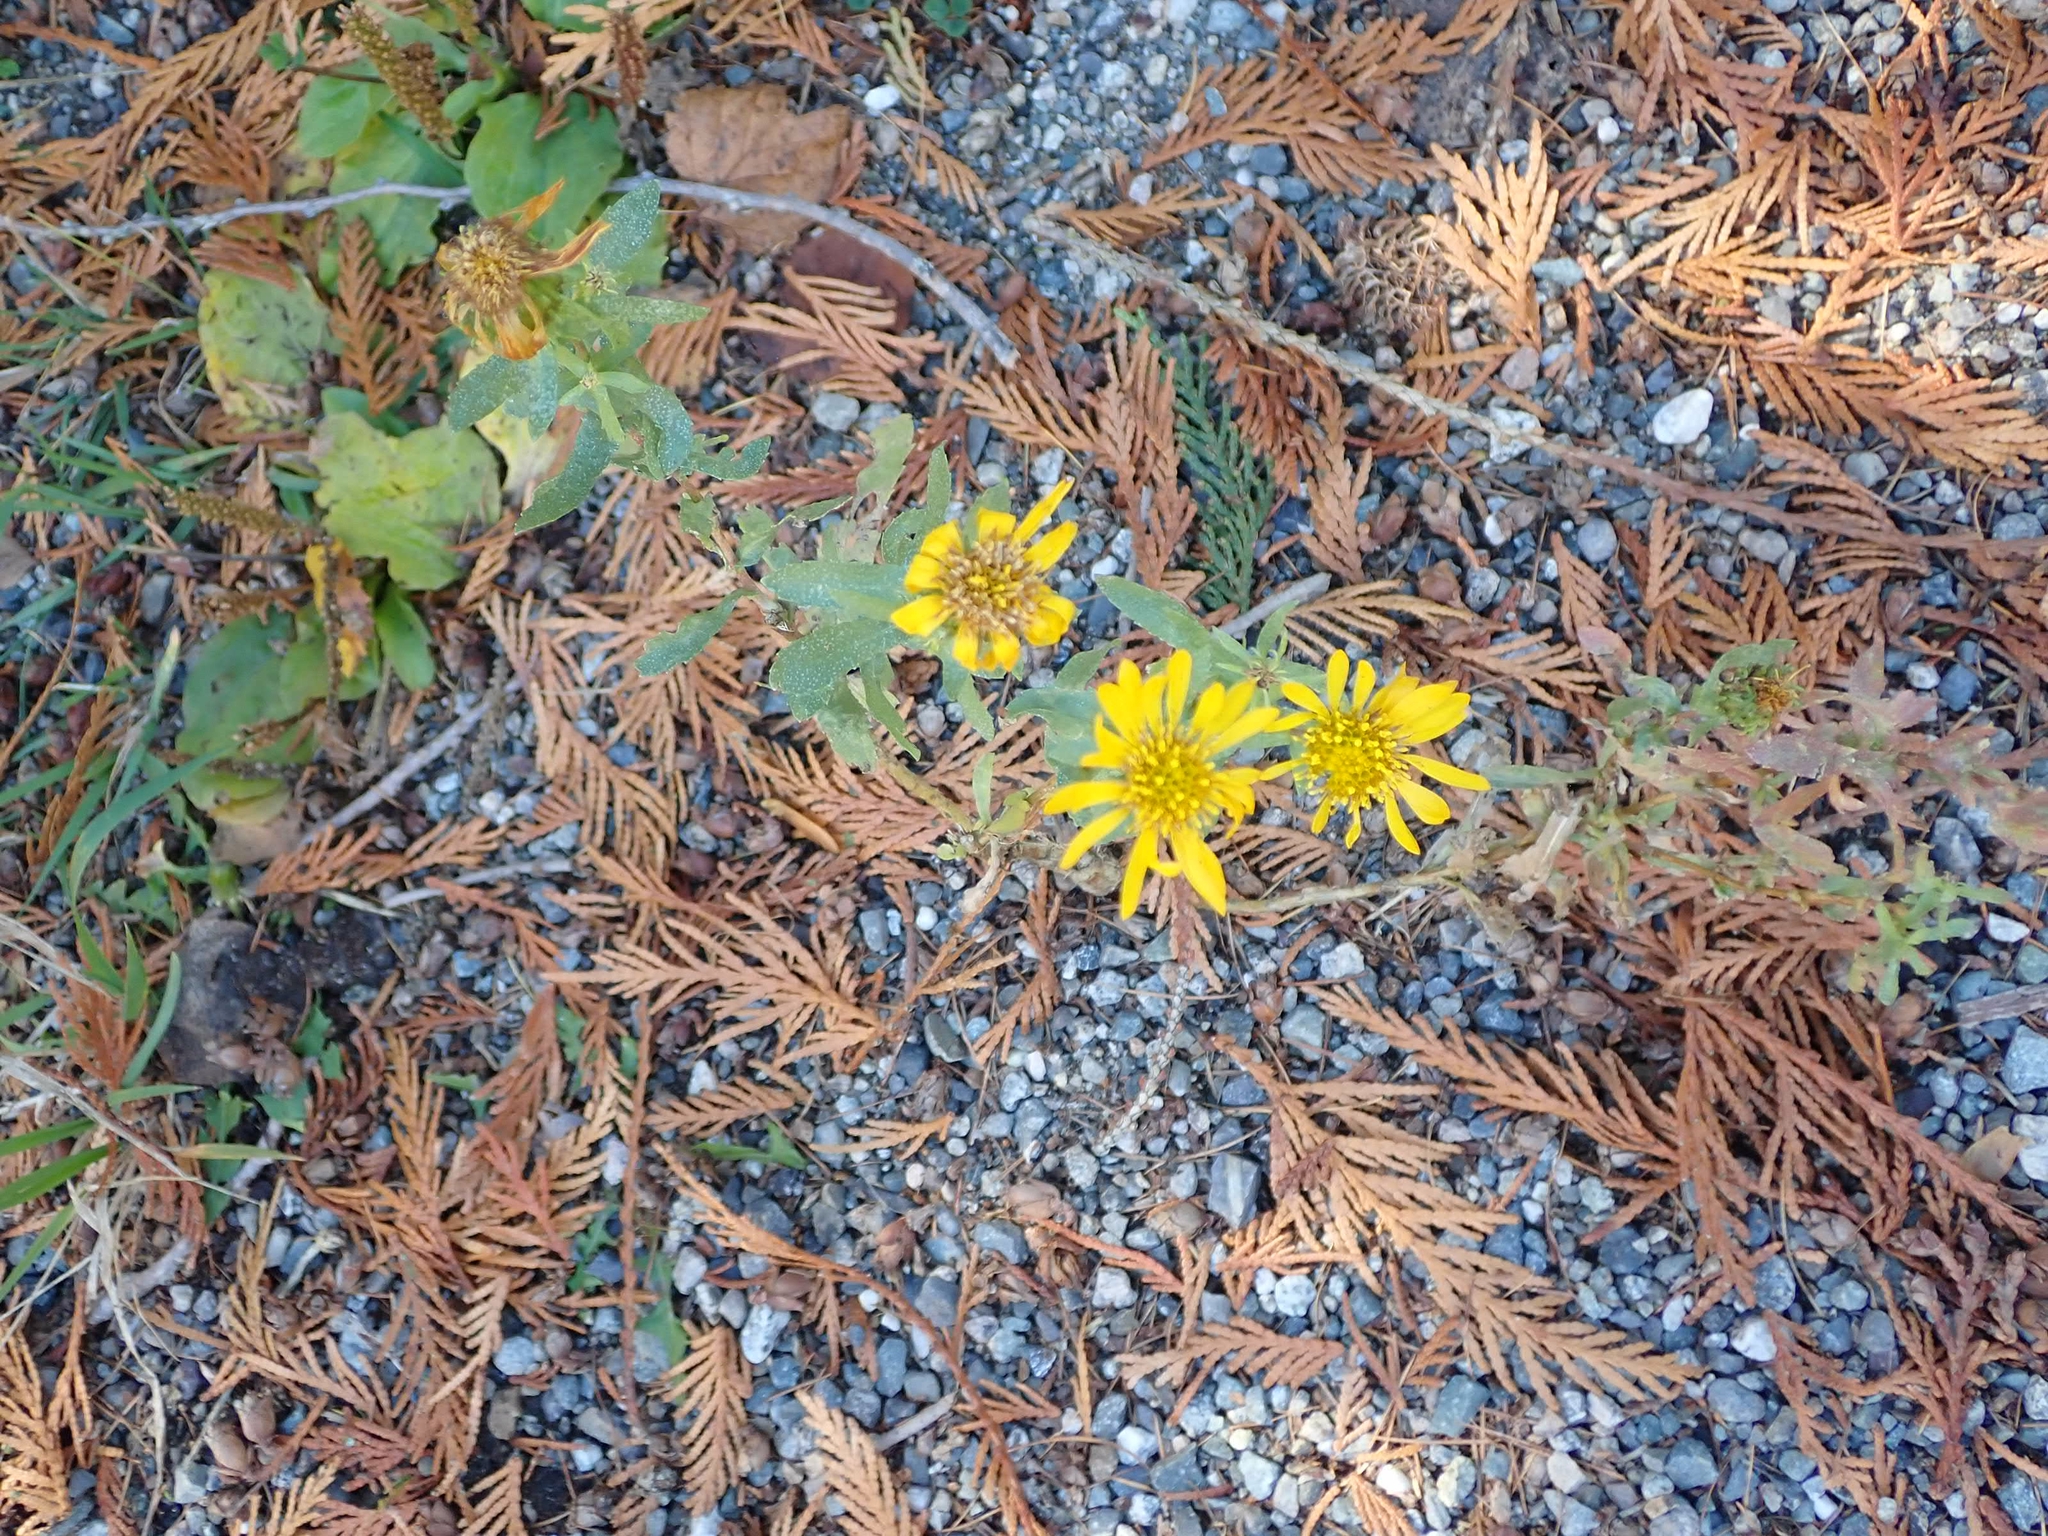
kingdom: Plantae
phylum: Tracheophyta
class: Magnoliopsida
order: Asterales
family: Asteraceae
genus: Grindelia
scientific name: Grindelia squarrosa
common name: Curly-cup gumweed
